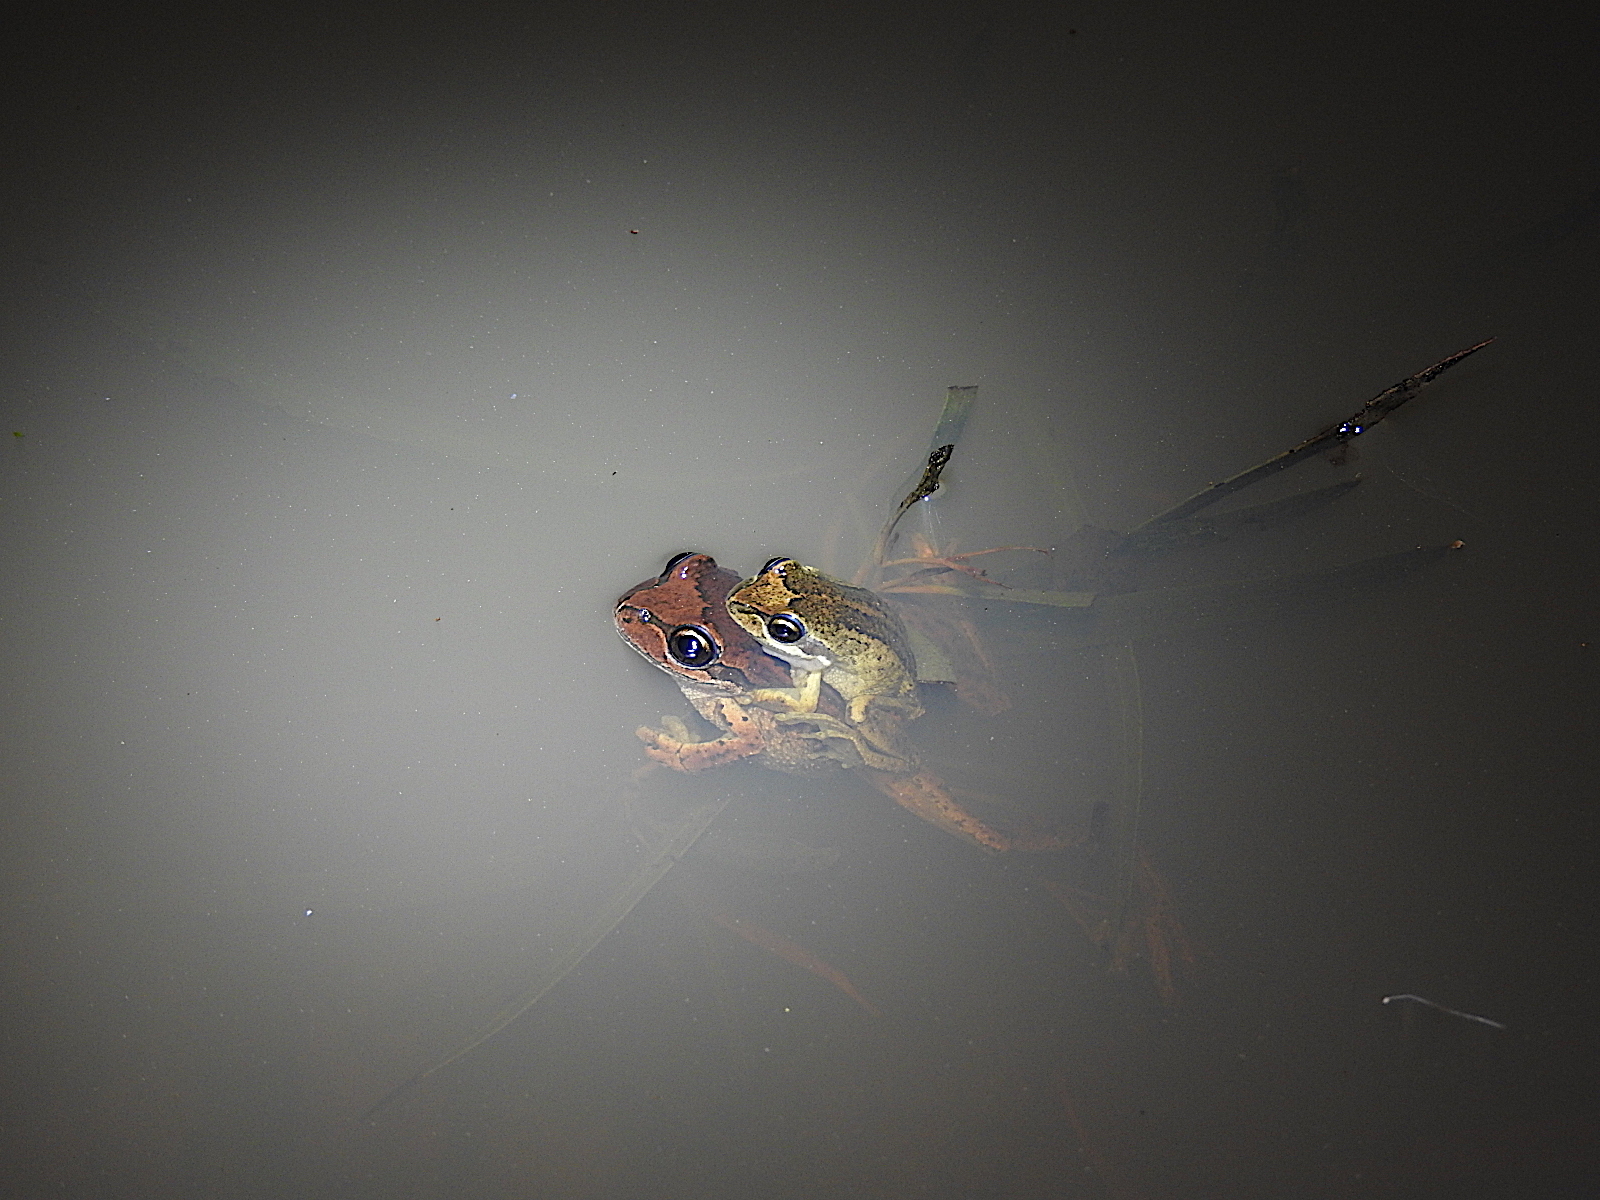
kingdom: Animalia
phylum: Chordata
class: Amphibia
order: Anura
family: Pelodryadidae
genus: Litoria
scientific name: Litoria ewingii
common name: Southern brown tree frog
